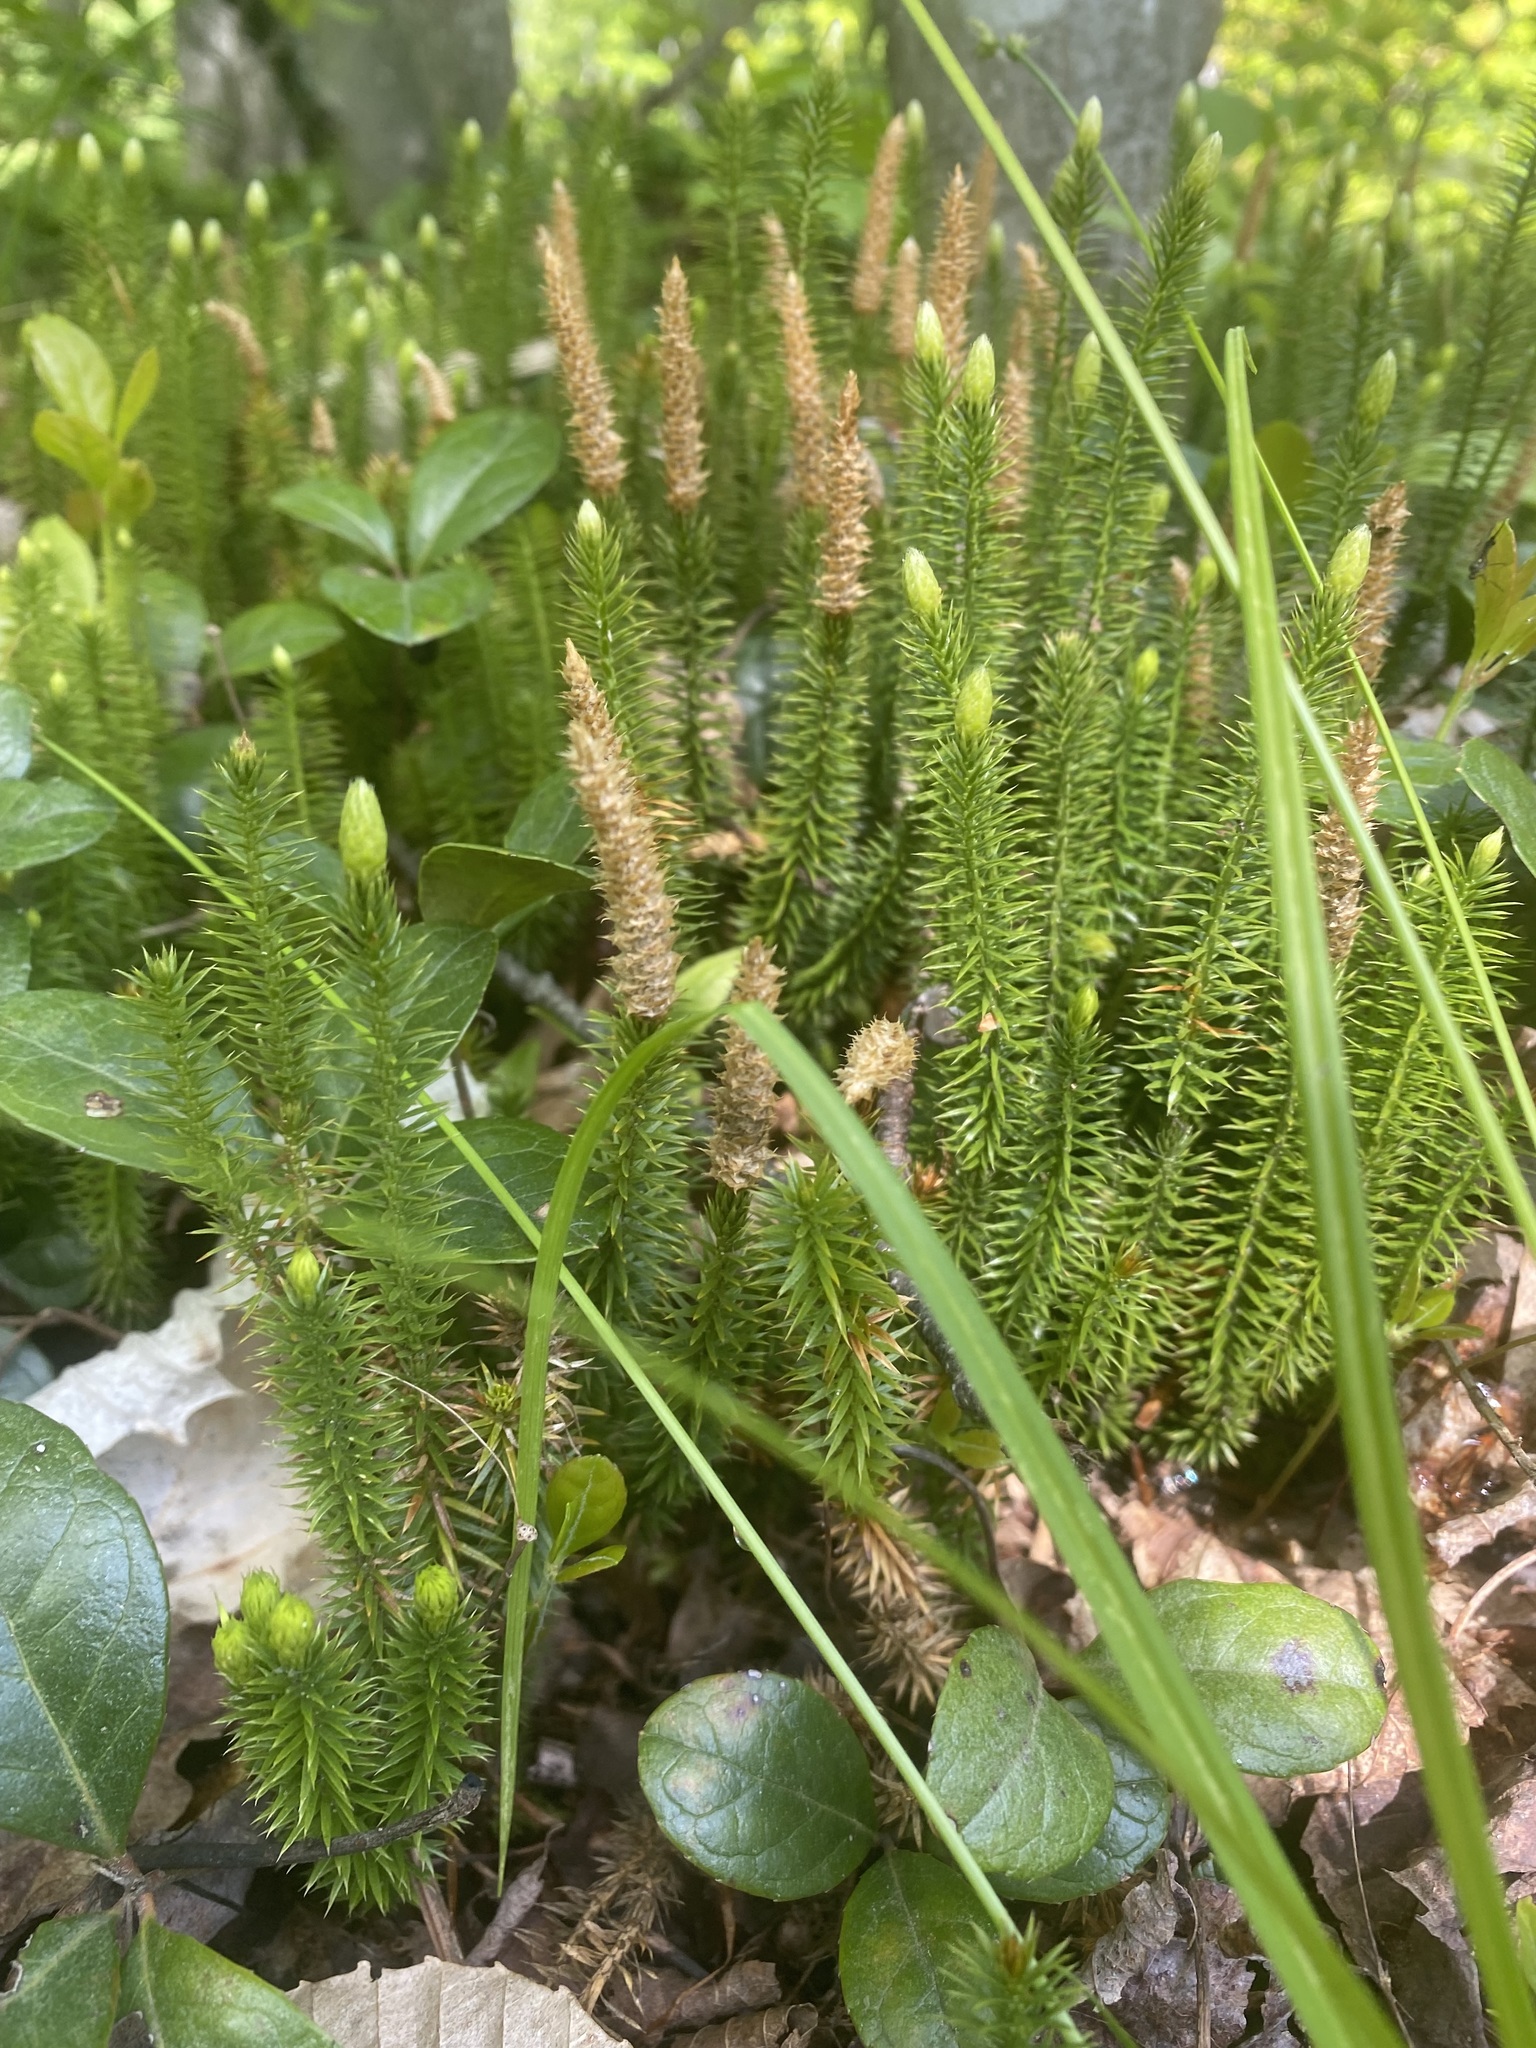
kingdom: Plantae
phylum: Tracheophyta
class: Lycopodiopsida
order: Lycopodiales
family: Lycopodiaceae
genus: Spinulum
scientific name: Spinulum annotinum
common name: Interrupted club-moss
